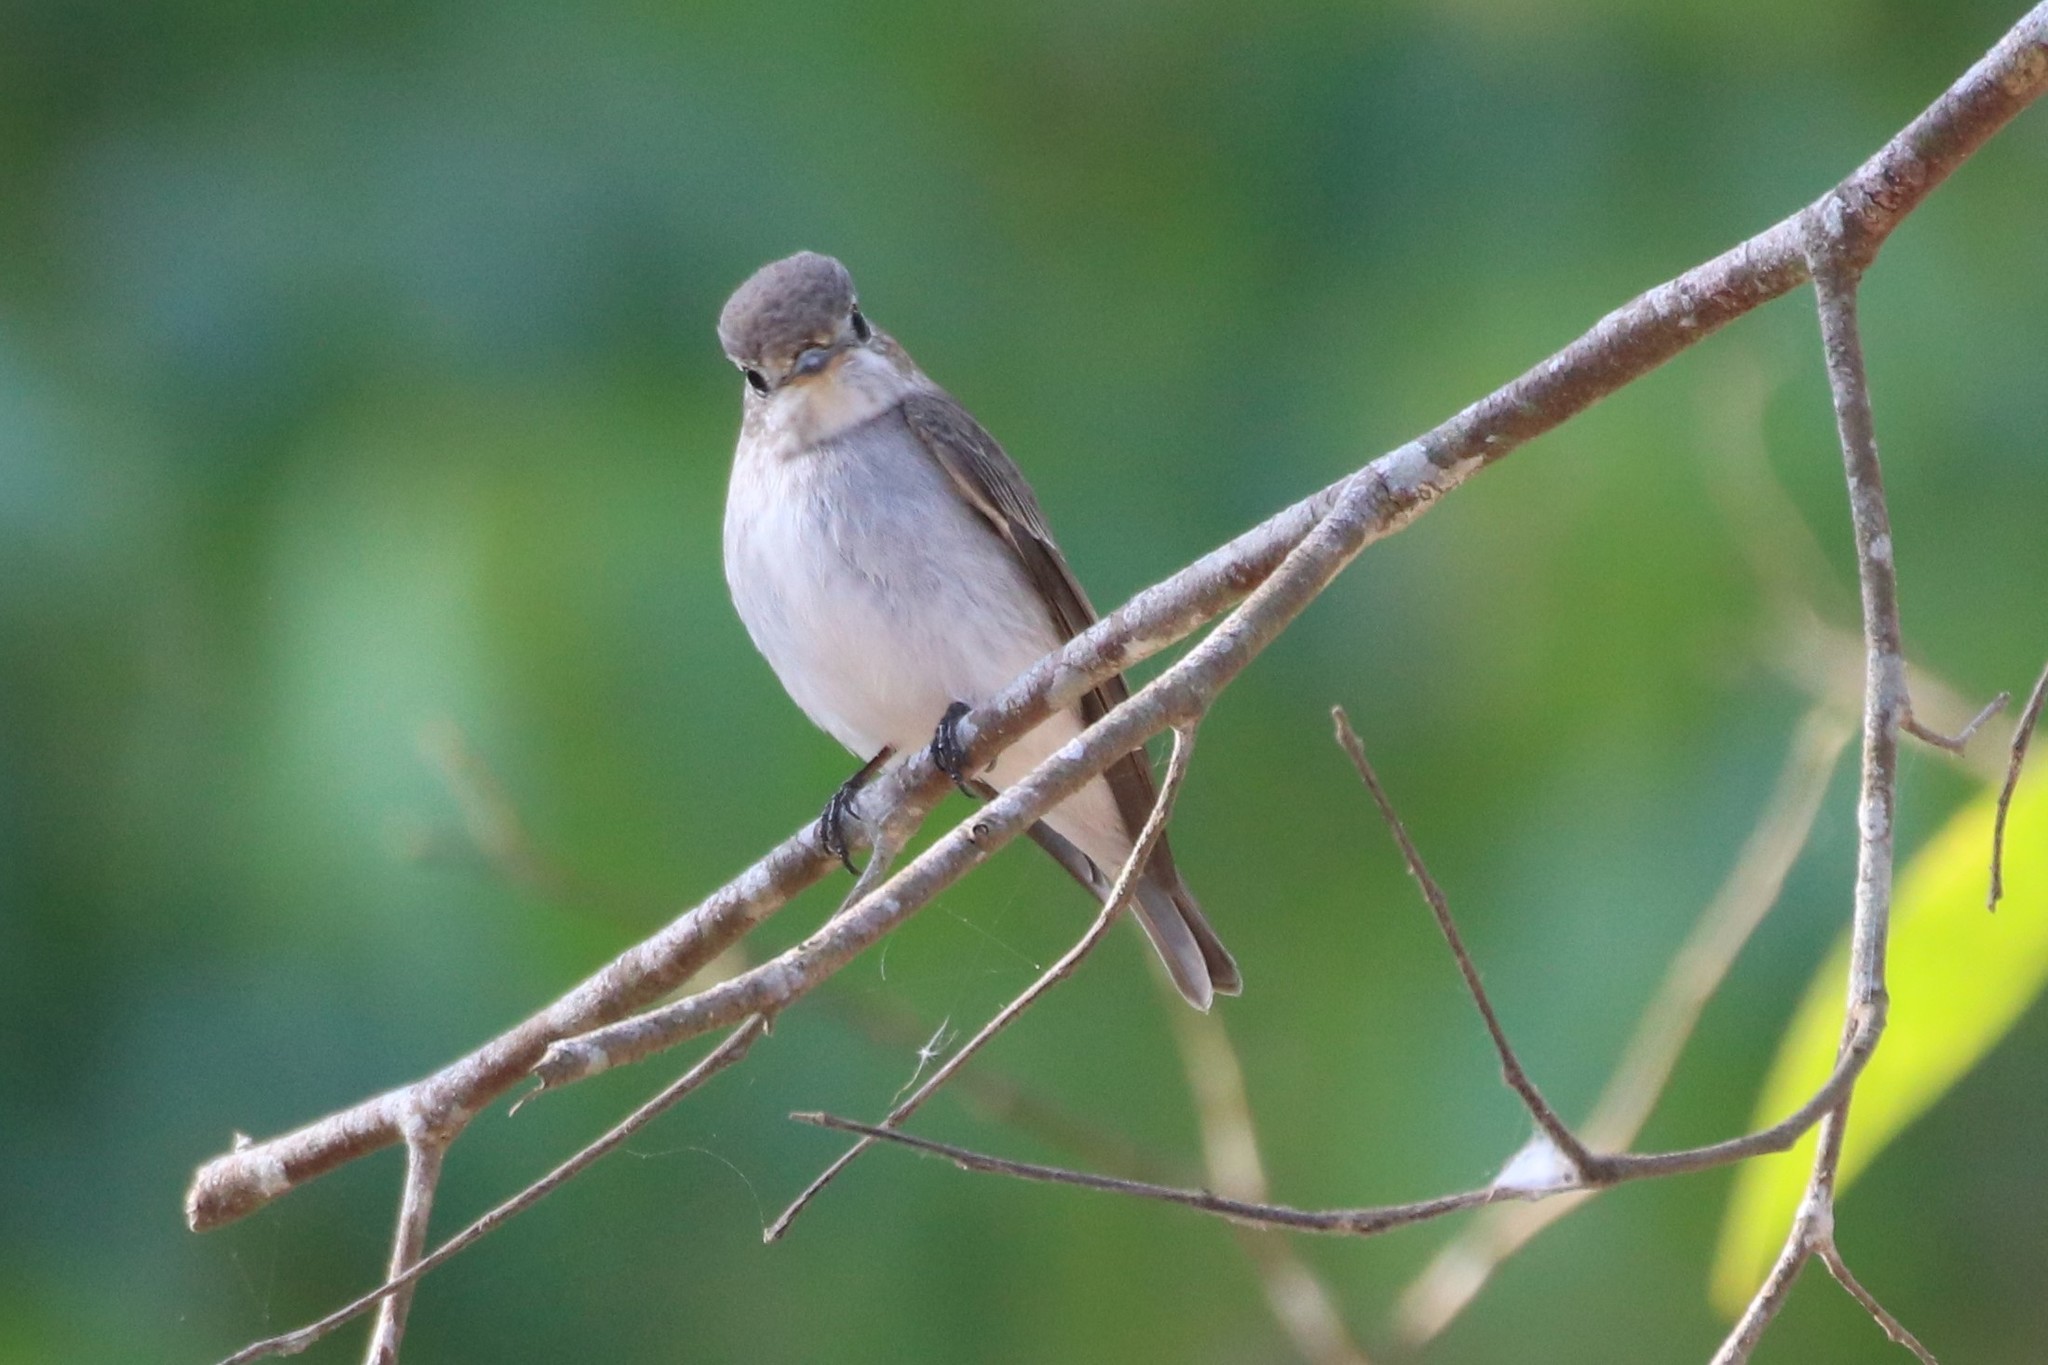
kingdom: Animalia
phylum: Chordata
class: Aves
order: Passeriformes
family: Muscicapidae
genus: Ficedula
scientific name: Ficedula albicilla
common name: Taiga flycatcher
